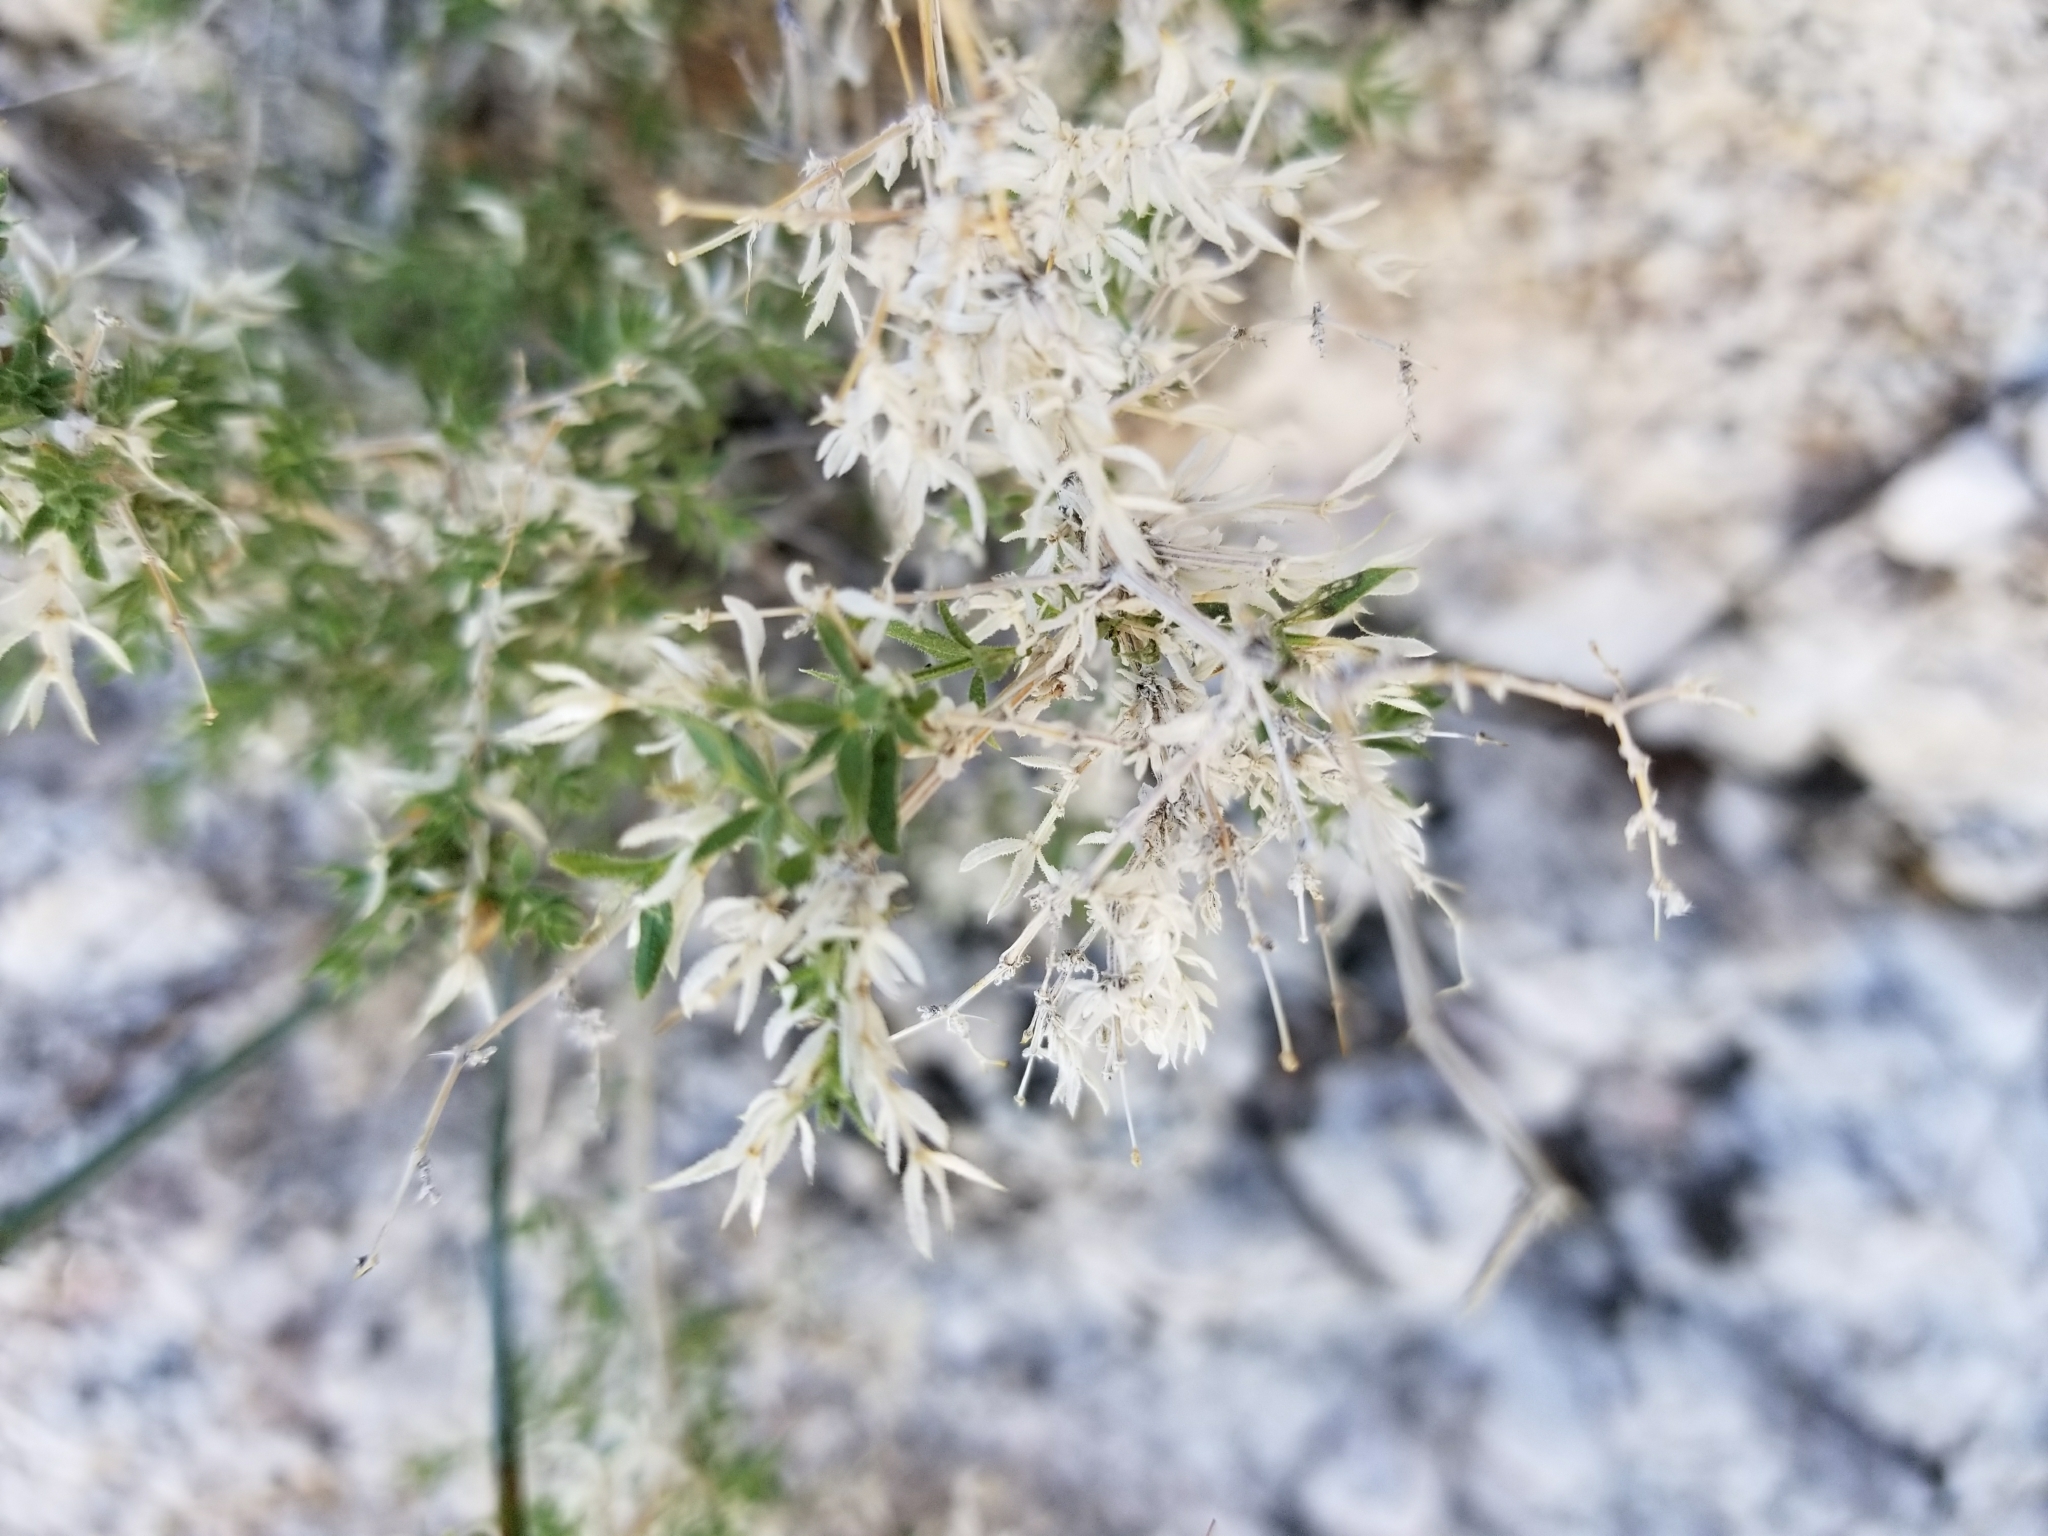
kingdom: Plantae
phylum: Tracheophyta
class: Magnoliopsida
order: Gentianales
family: Rubiaceae
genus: Galium
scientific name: Galium stellatum
